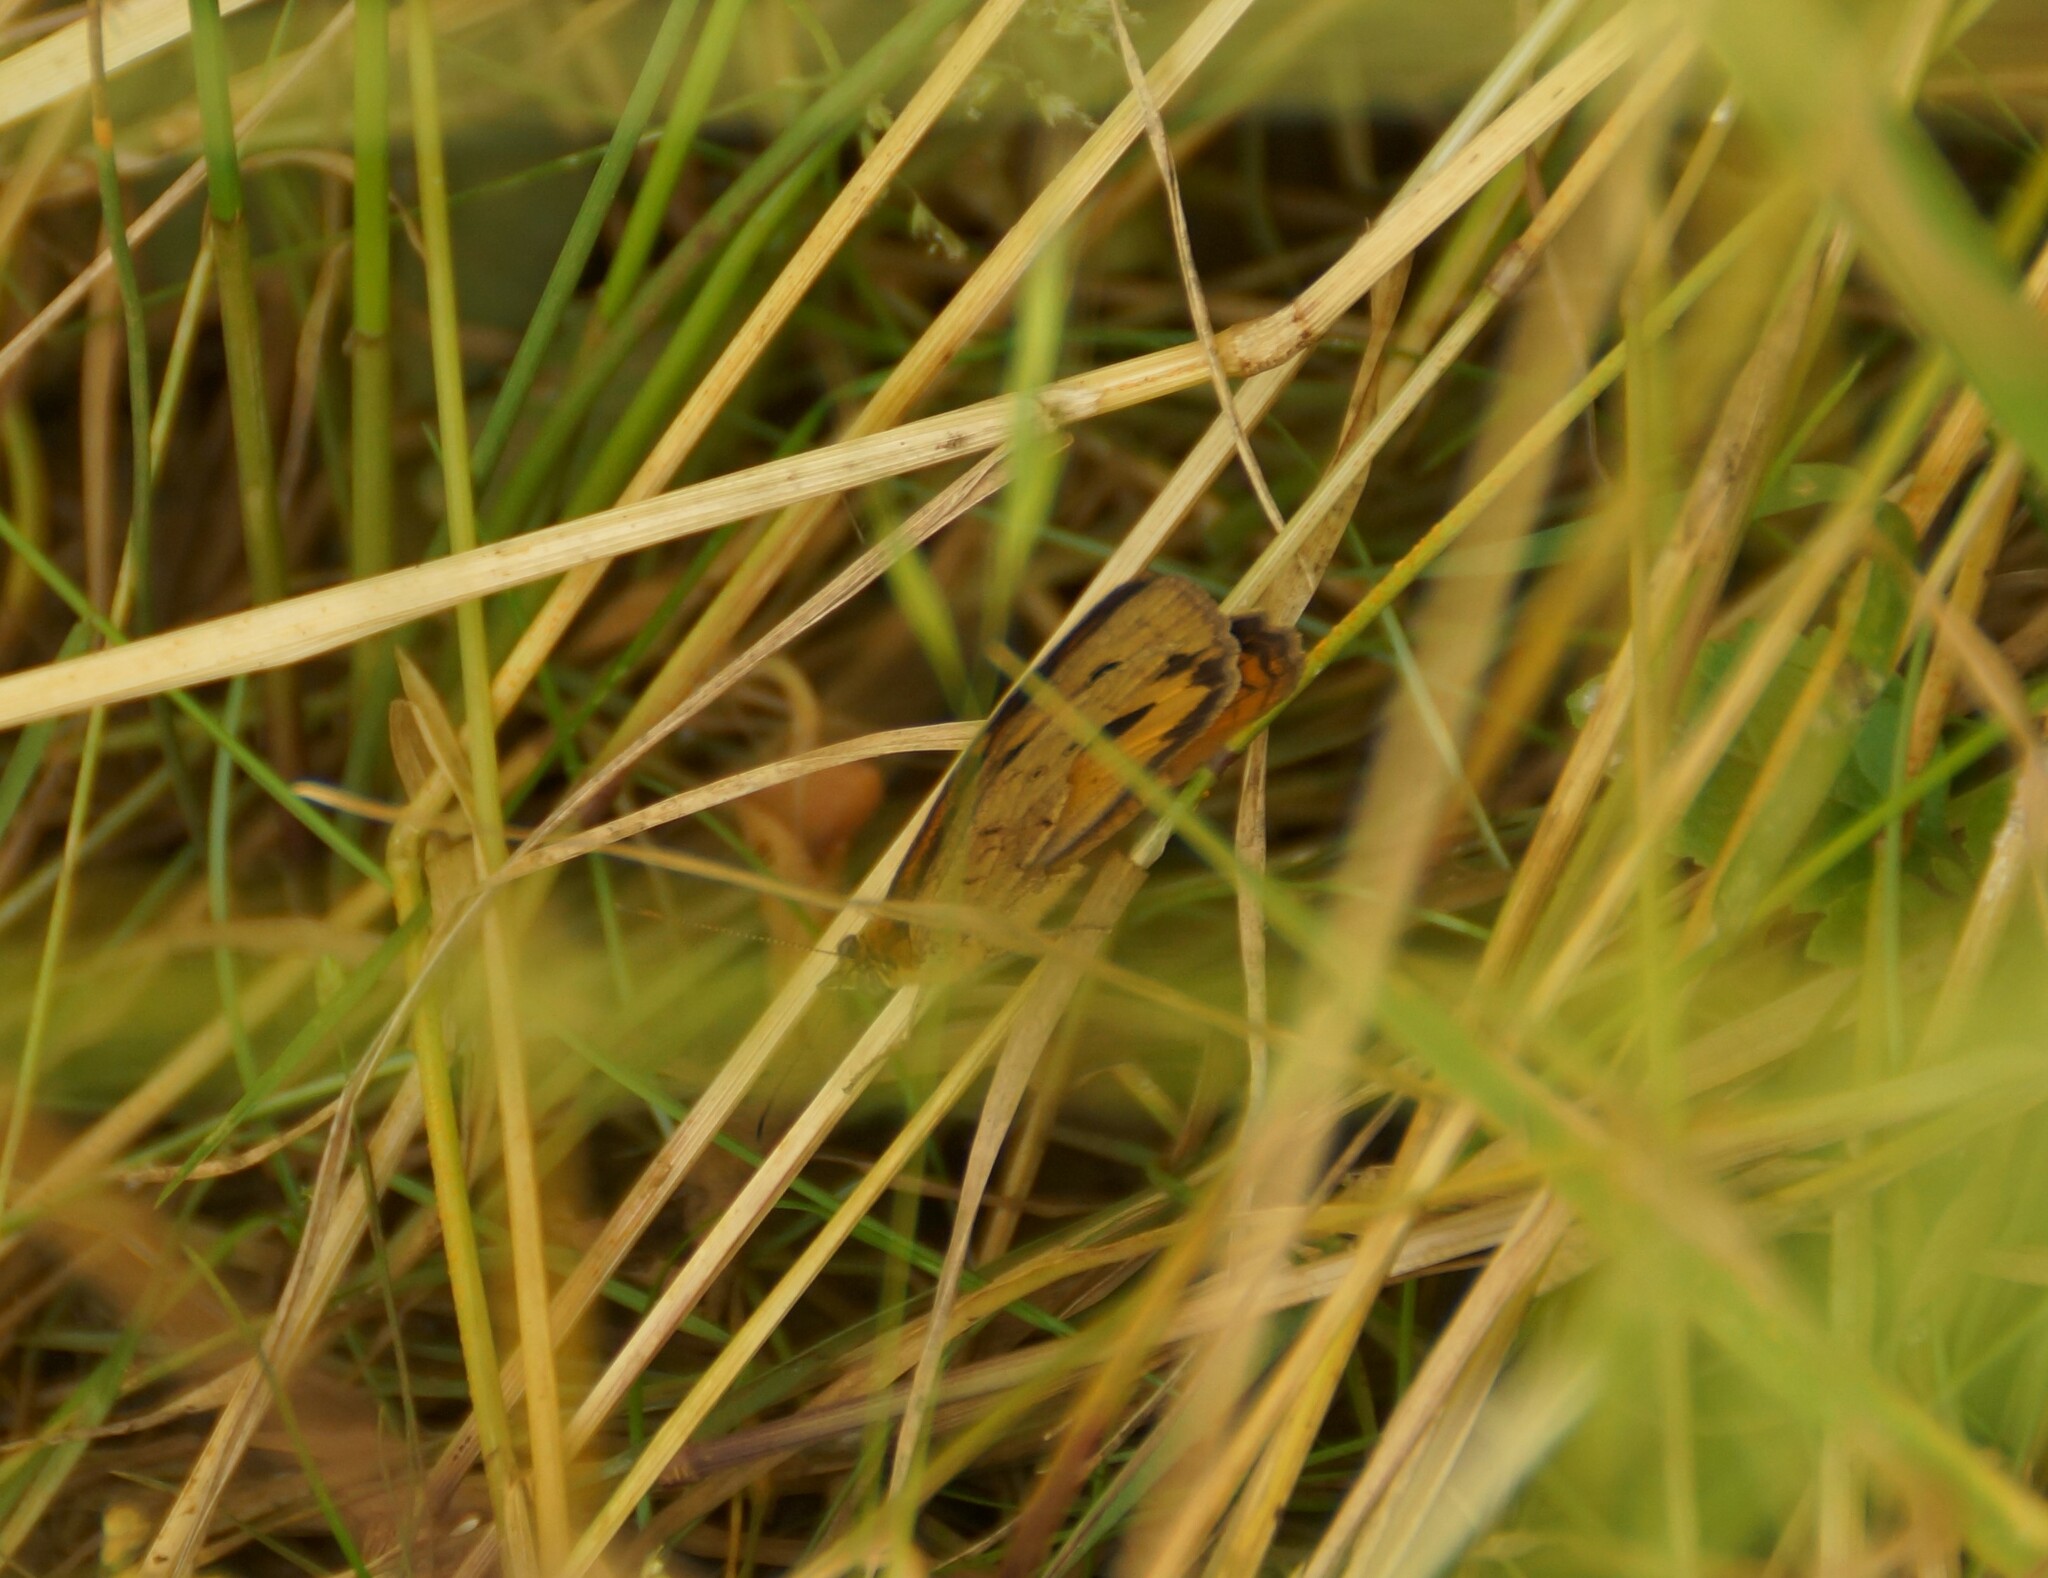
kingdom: Animalia
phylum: Arthropoda
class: Insecta
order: Lepidoptera
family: Nymphalidae
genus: Heteronympha
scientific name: Heteronympha merope
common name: Common brown
